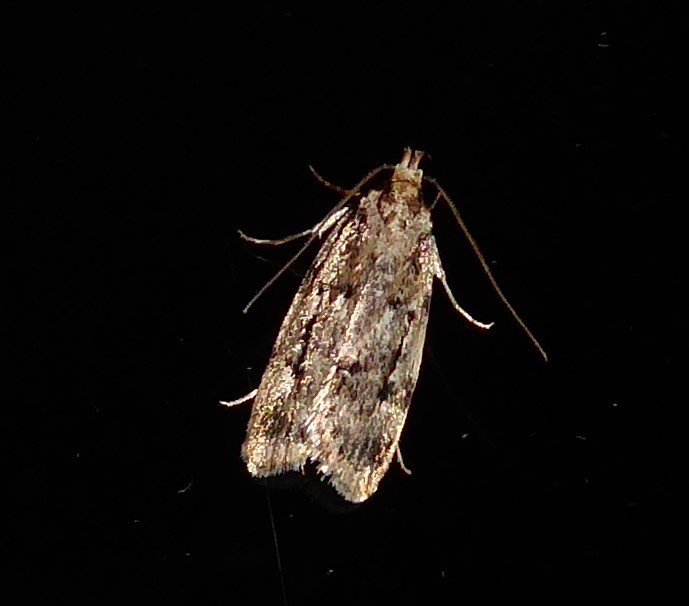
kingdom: Animalia
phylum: Arthropoda
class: Insecta
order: Lepidoptera
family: Oecophoridae
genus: Barea
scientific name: Barea exarcha
